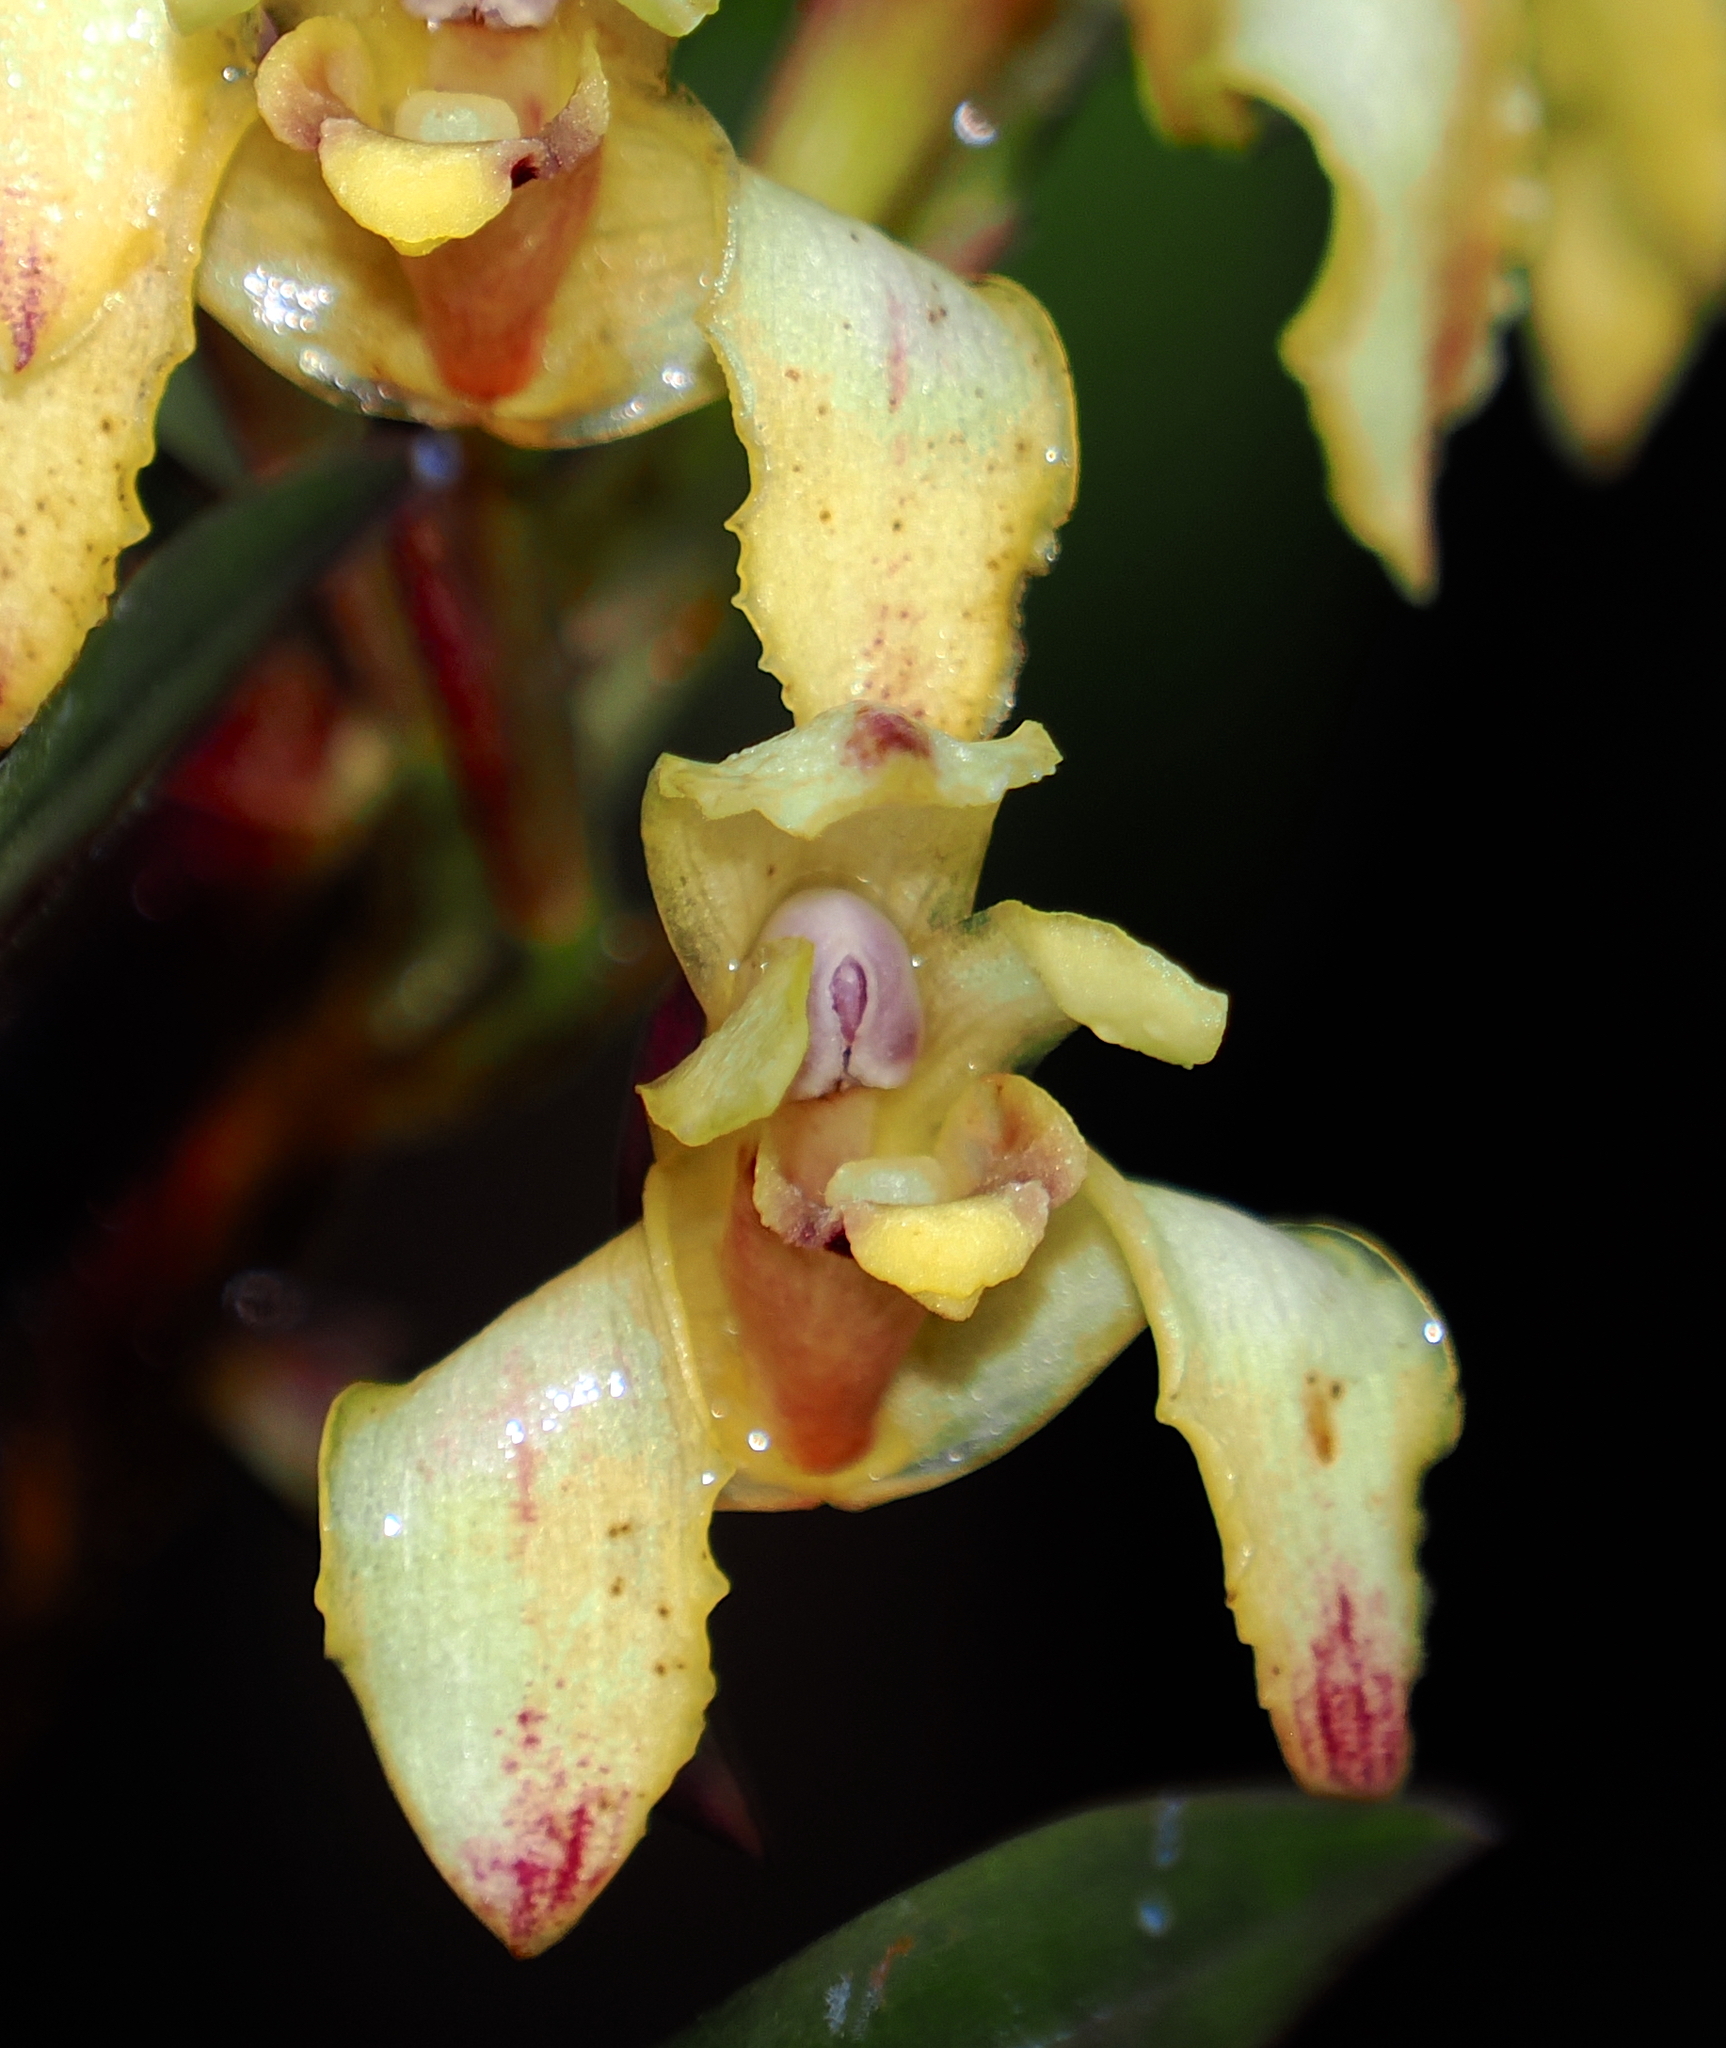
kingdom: Plantae
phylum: Tracheophyta
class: Liliopsida
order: Asparagales
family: Orchidaceae
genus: Maxillaria
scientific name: Maxillaria embreei
